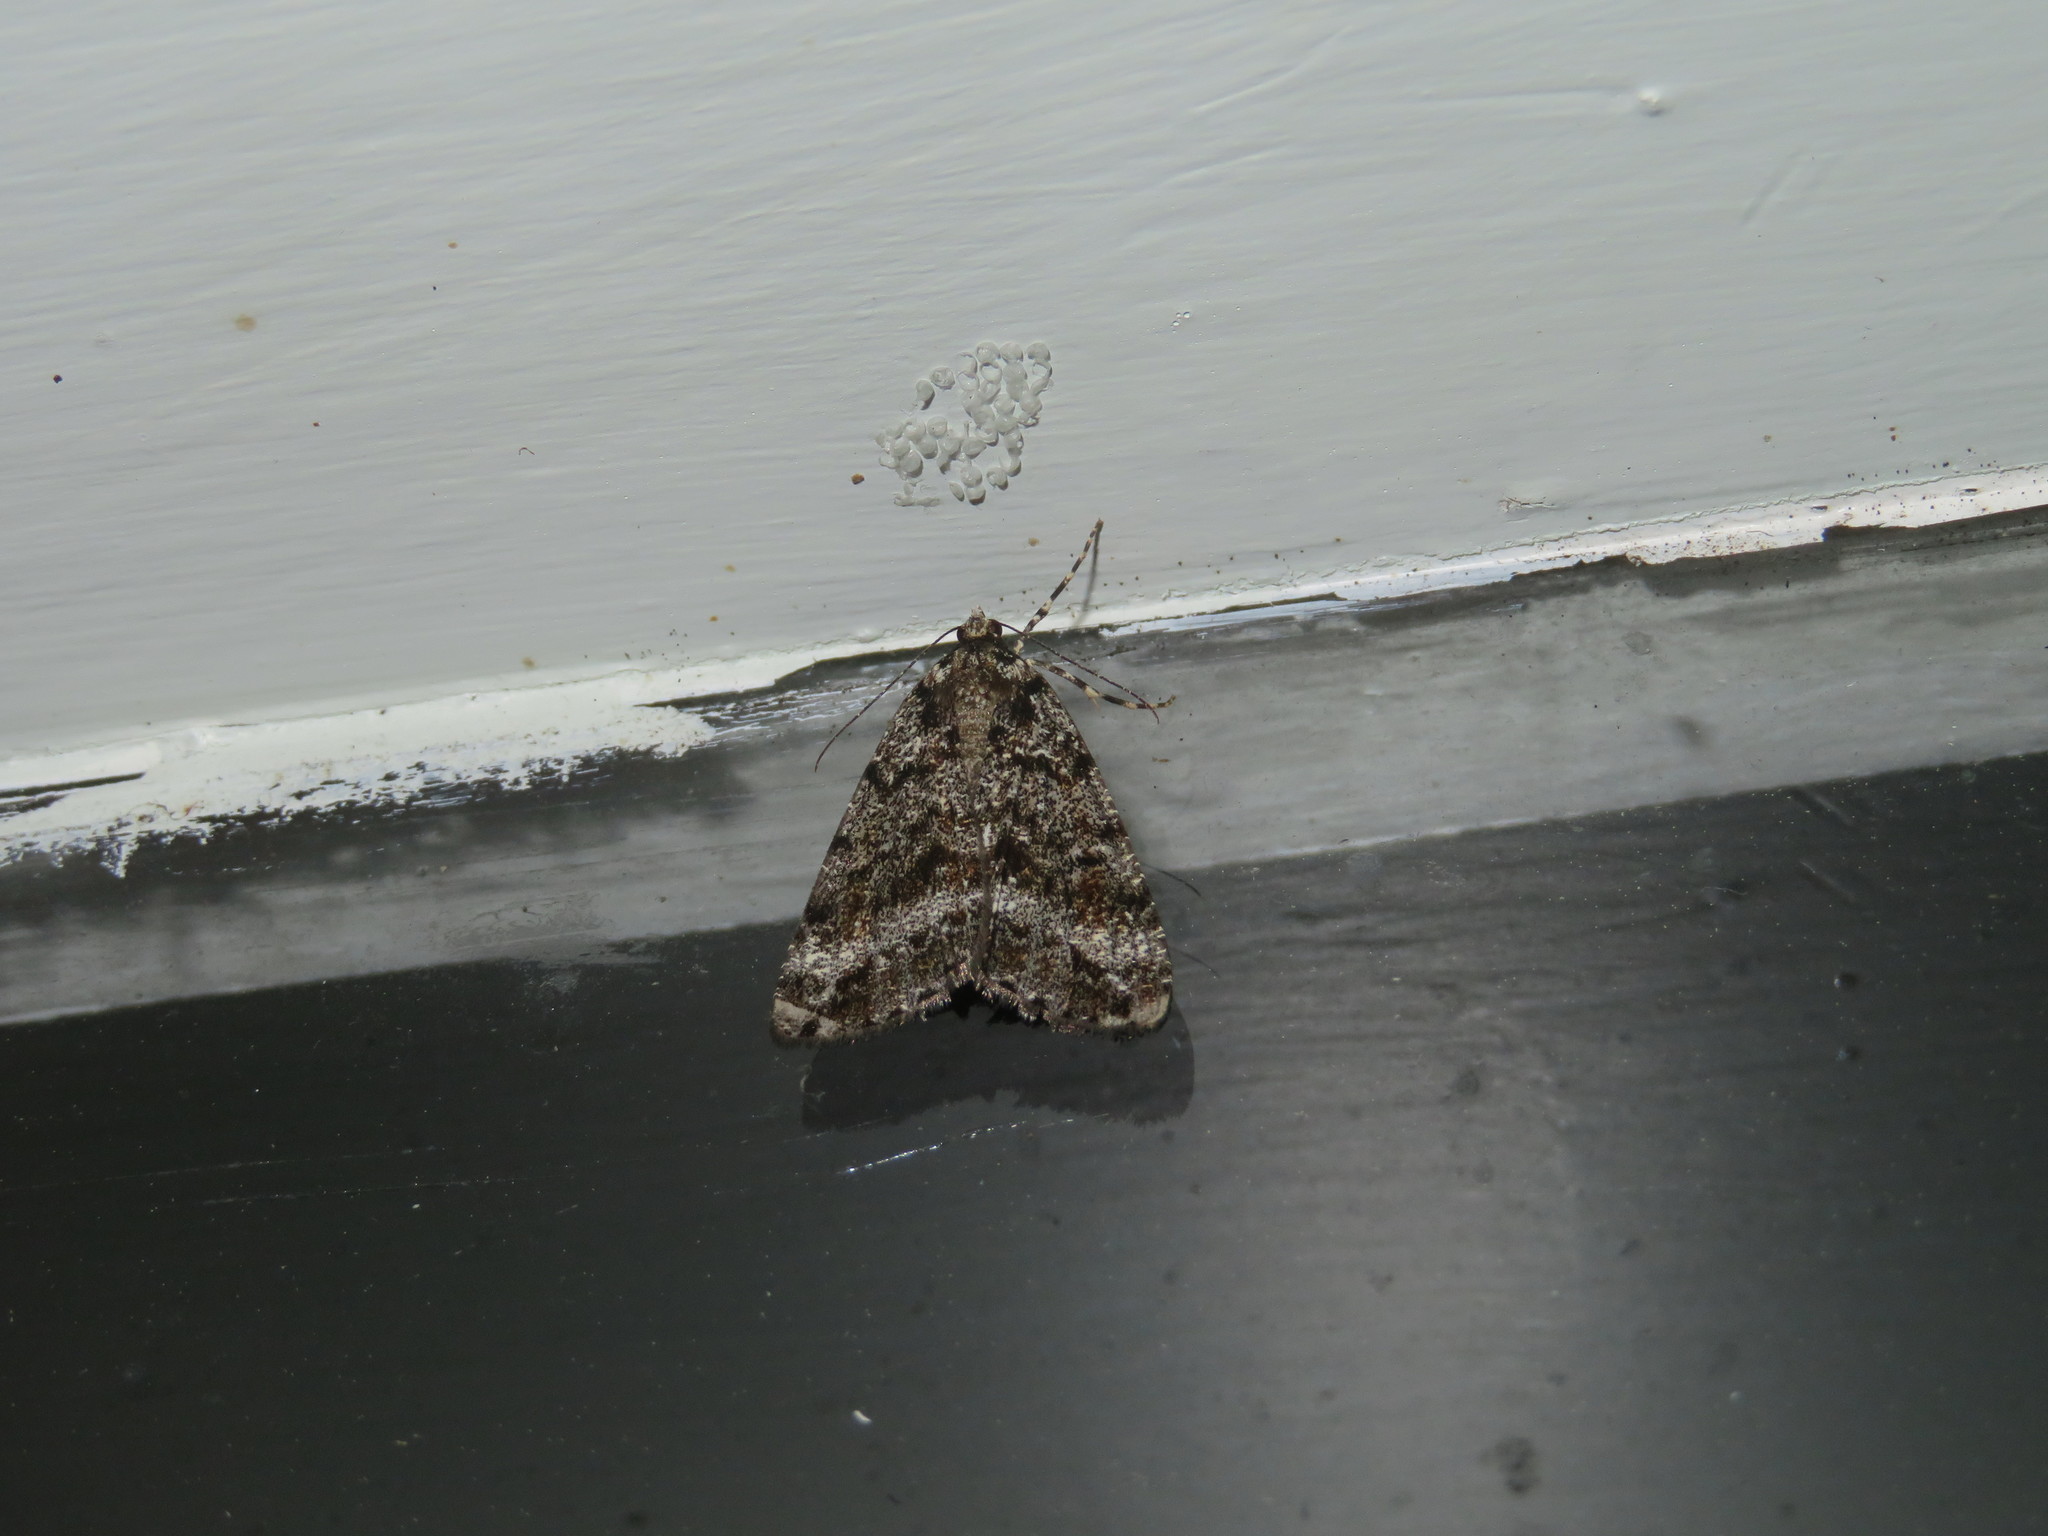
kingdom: Animalia
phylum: Arthropoda
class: Insecta
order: Lepidoptera
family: Geometridae
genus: Pseudocoremia
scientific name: Pseudocoremia monacha
